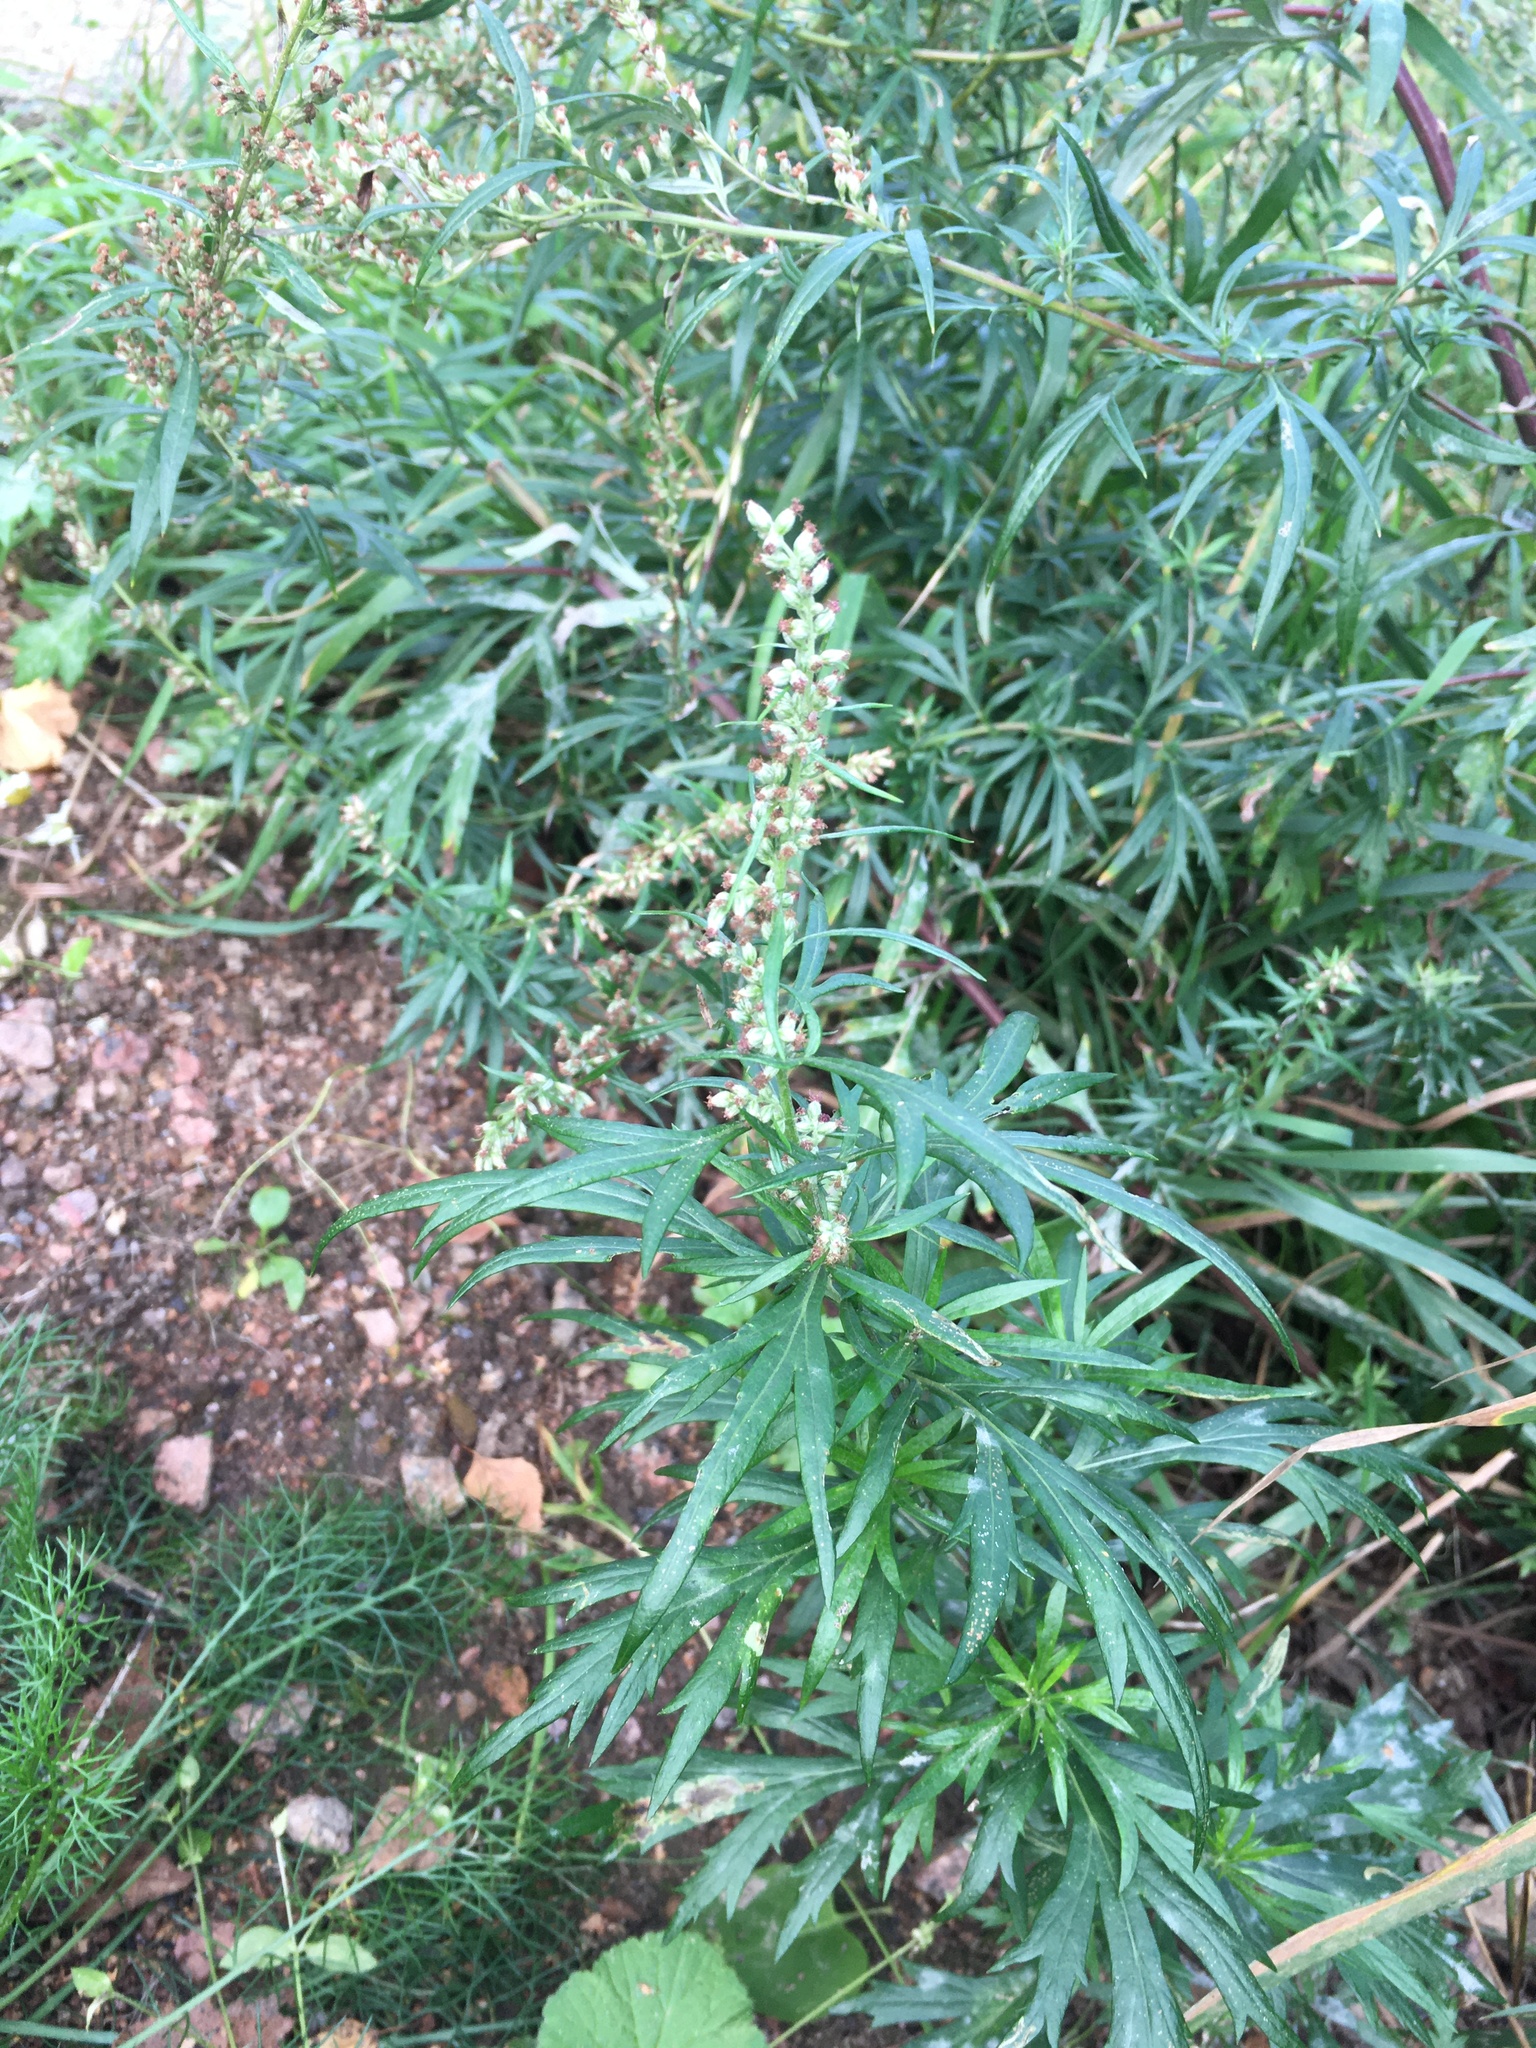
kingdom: Plantae
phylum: Tracheophyta
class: Magnoliopsida
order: Asterales
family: Asteraceae
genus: Artemisia
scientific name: Artemisia vulgaris
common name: Mugwort
